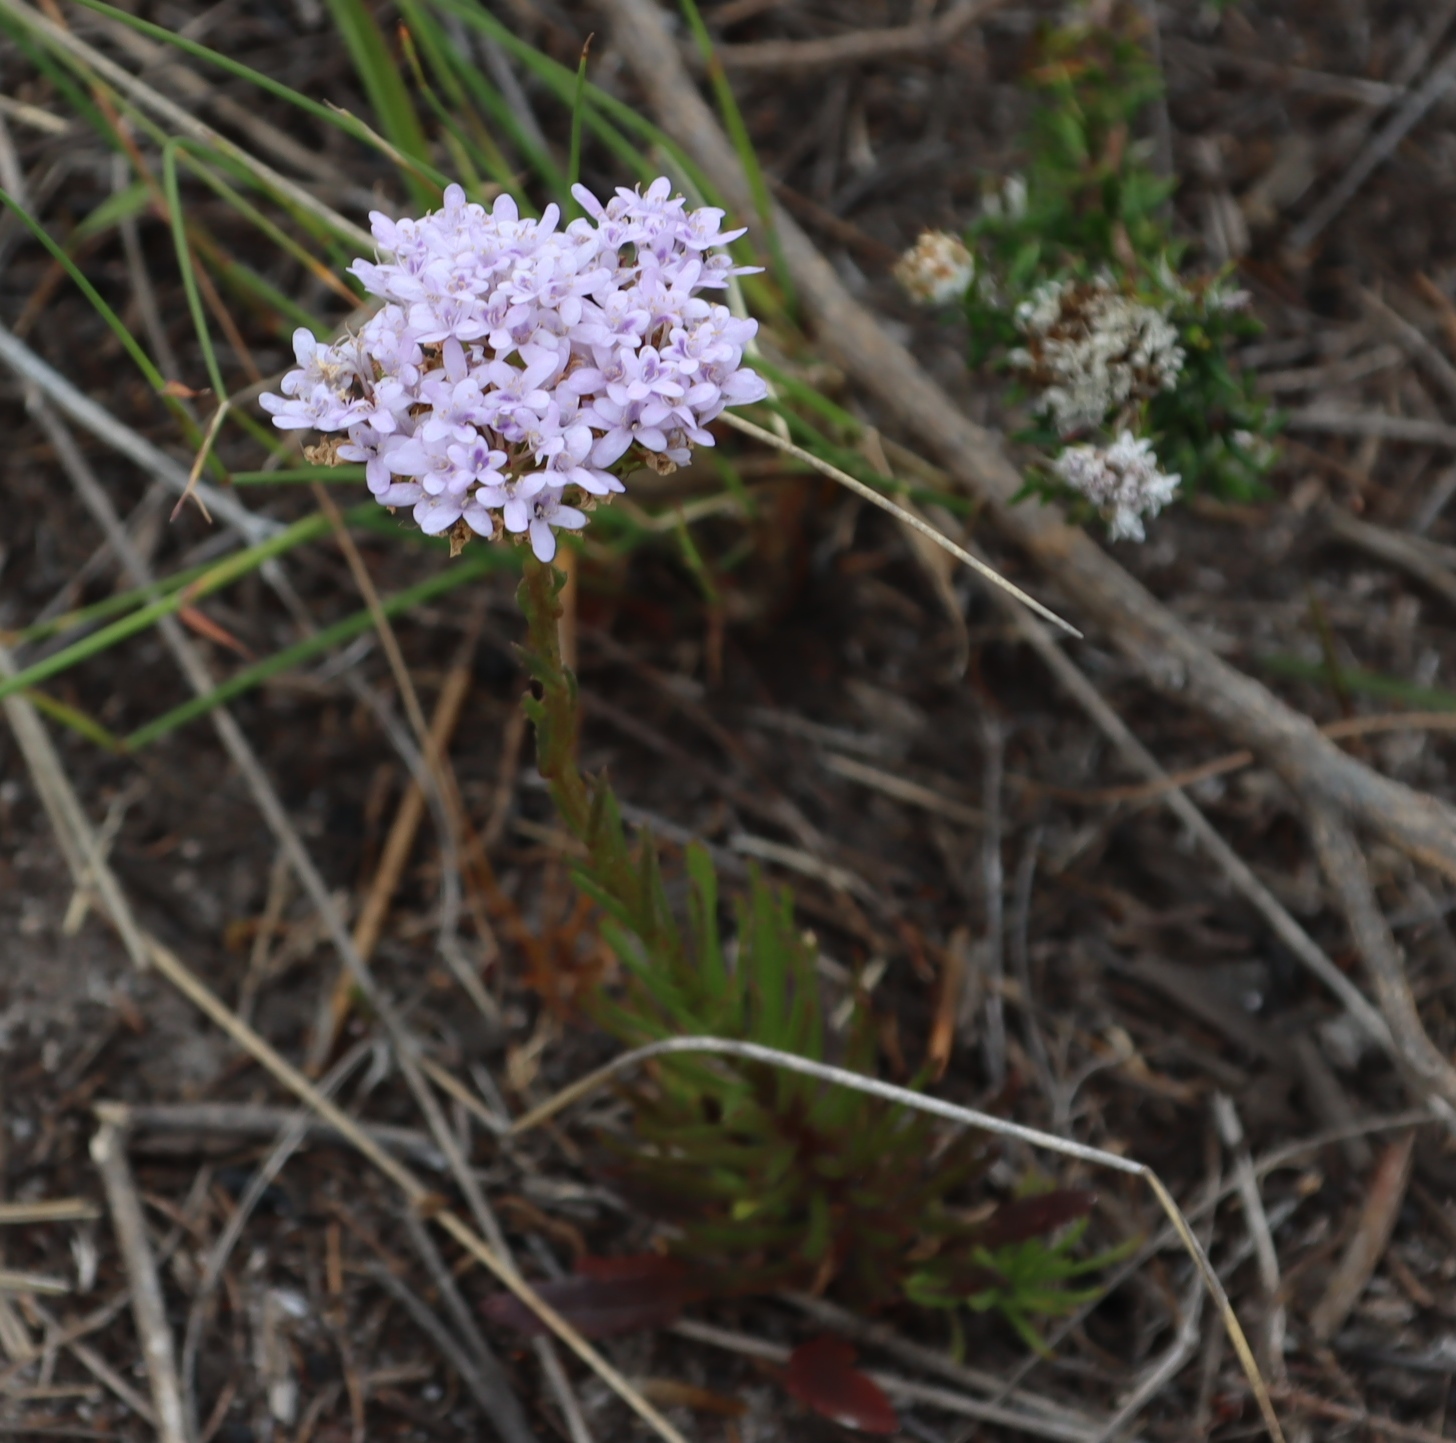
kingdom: Plantae
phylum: Tracheophyta
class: Magnoliopsida
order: Lamiales
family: Scrophulariaceae
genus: Pseudoselago
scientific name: Pseudoselago spuria
